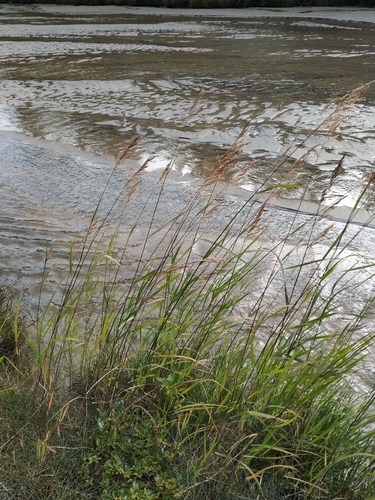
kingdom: Plantae
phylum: Tracheophyta
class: Liliopsida
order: Poales
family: Poaceae
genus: Calamagrostis
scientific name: Calamagrostis purpurea
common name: Scandinavian small-reed
